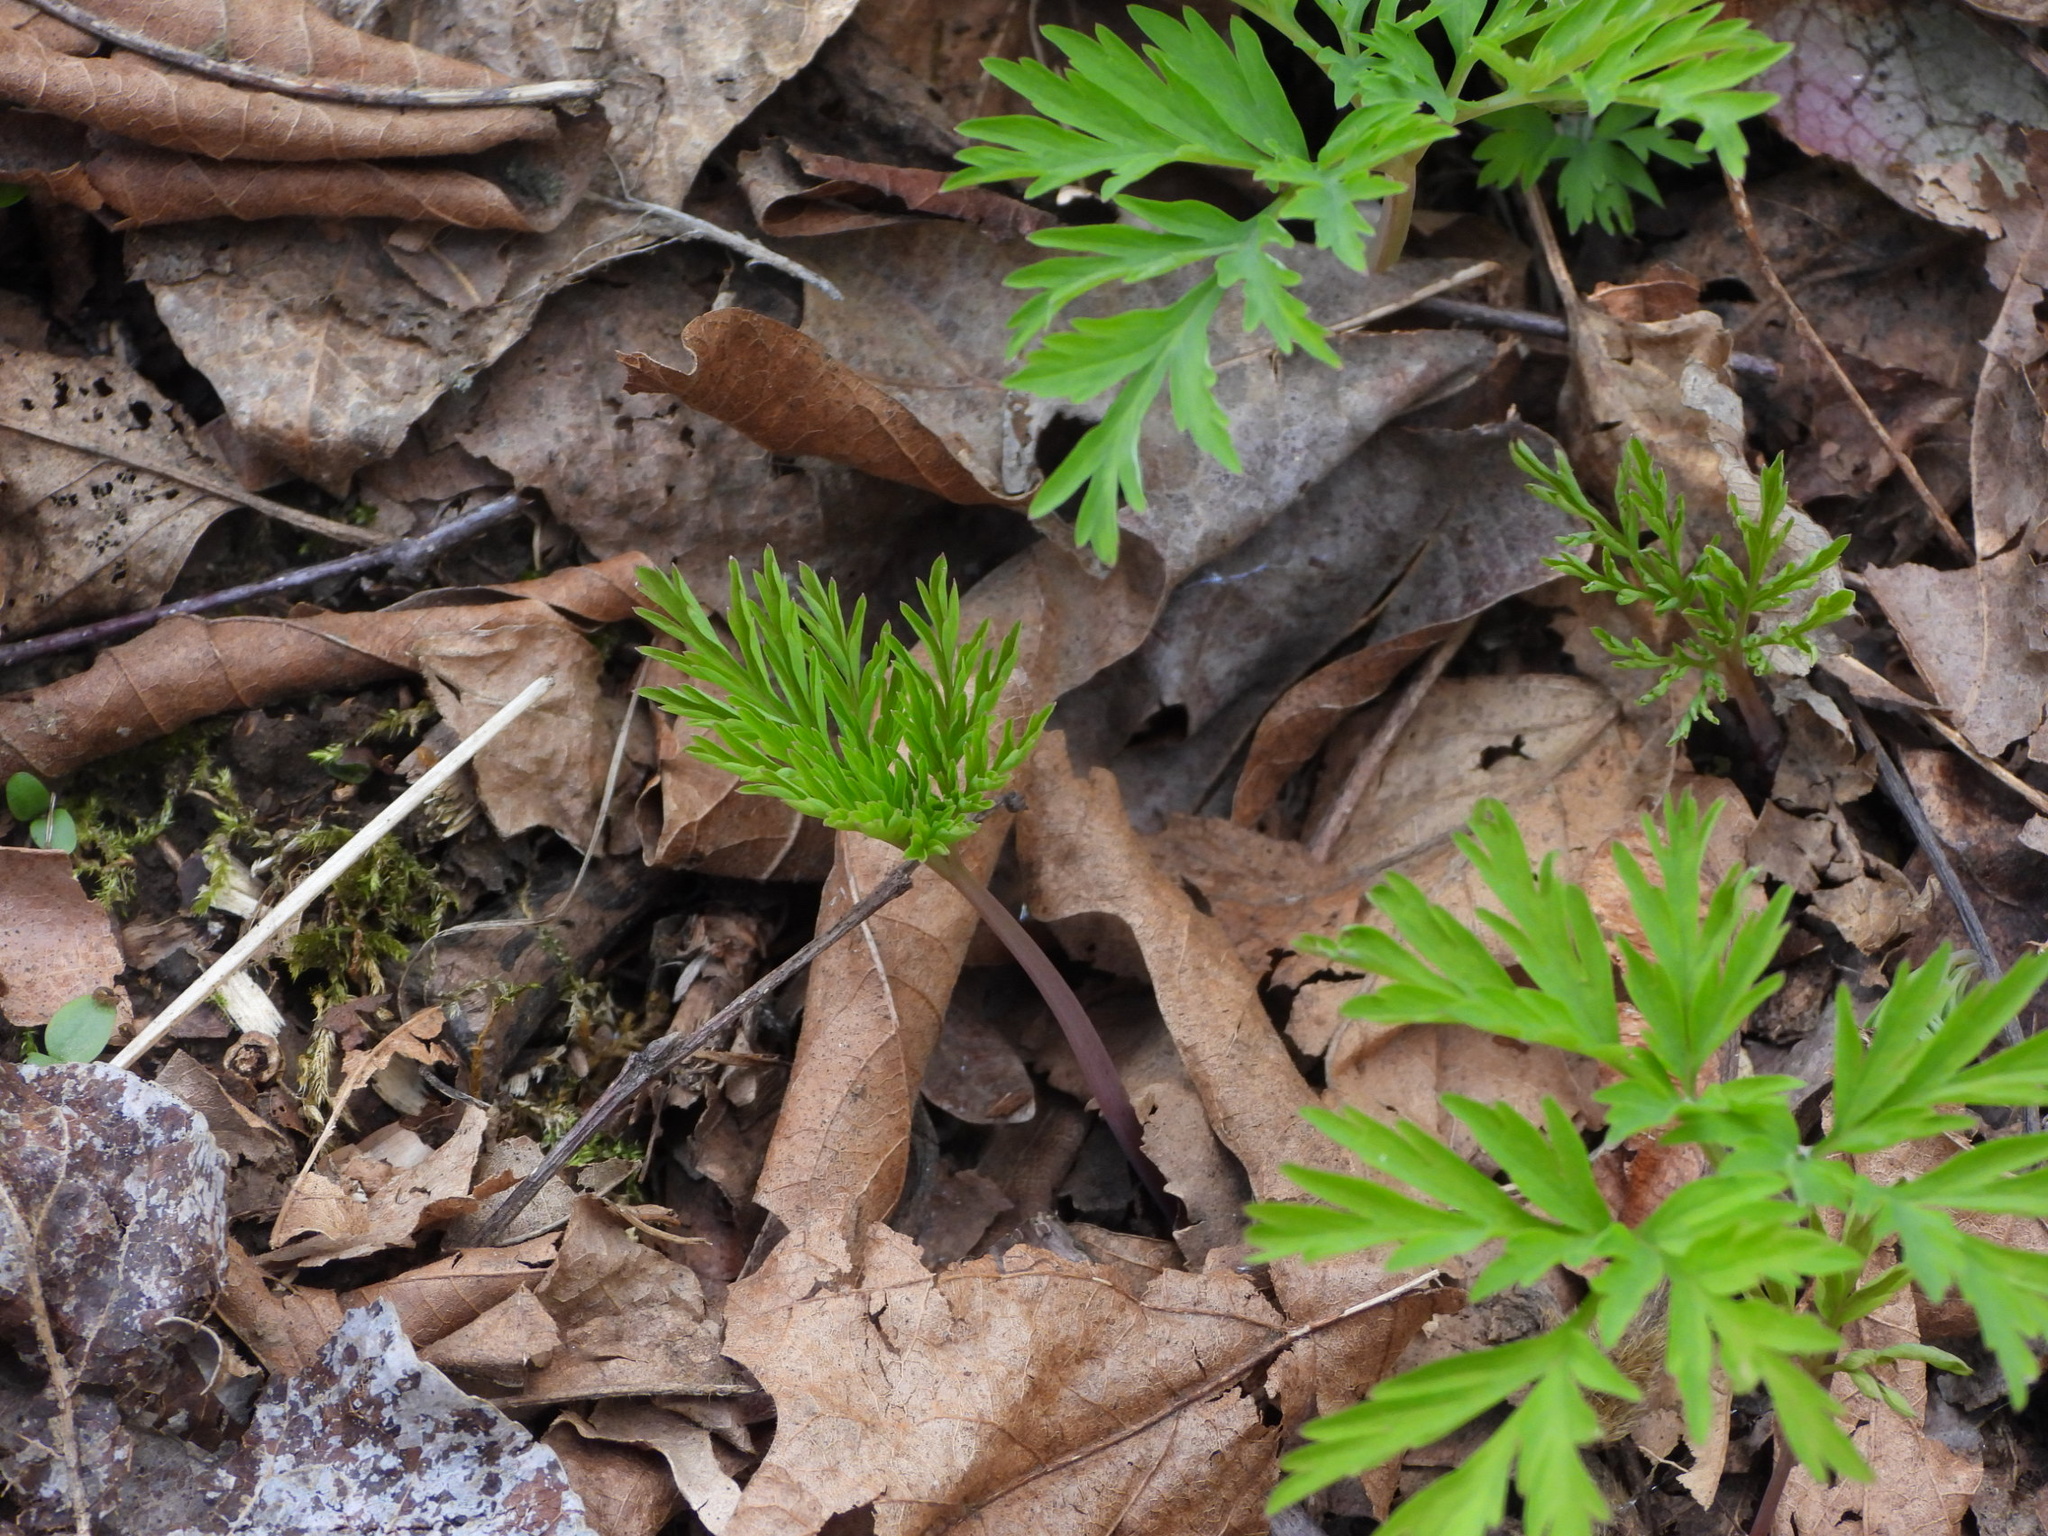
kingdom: Plantae
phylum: Tracheophyta
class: Magnoliopsida
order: Ranunculales
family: Papaveraceae
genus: Dicentra
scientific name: Dicentra formosa
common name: Bleeding-heart
